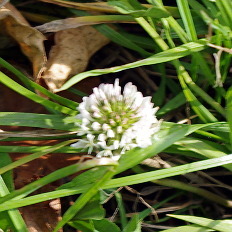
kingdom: Plantae
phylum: Tracheophyta
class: Magnoliopsida
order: Fabales
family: Fabaceae
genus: Trifolium
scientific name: Trifolium repens
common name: White clover
